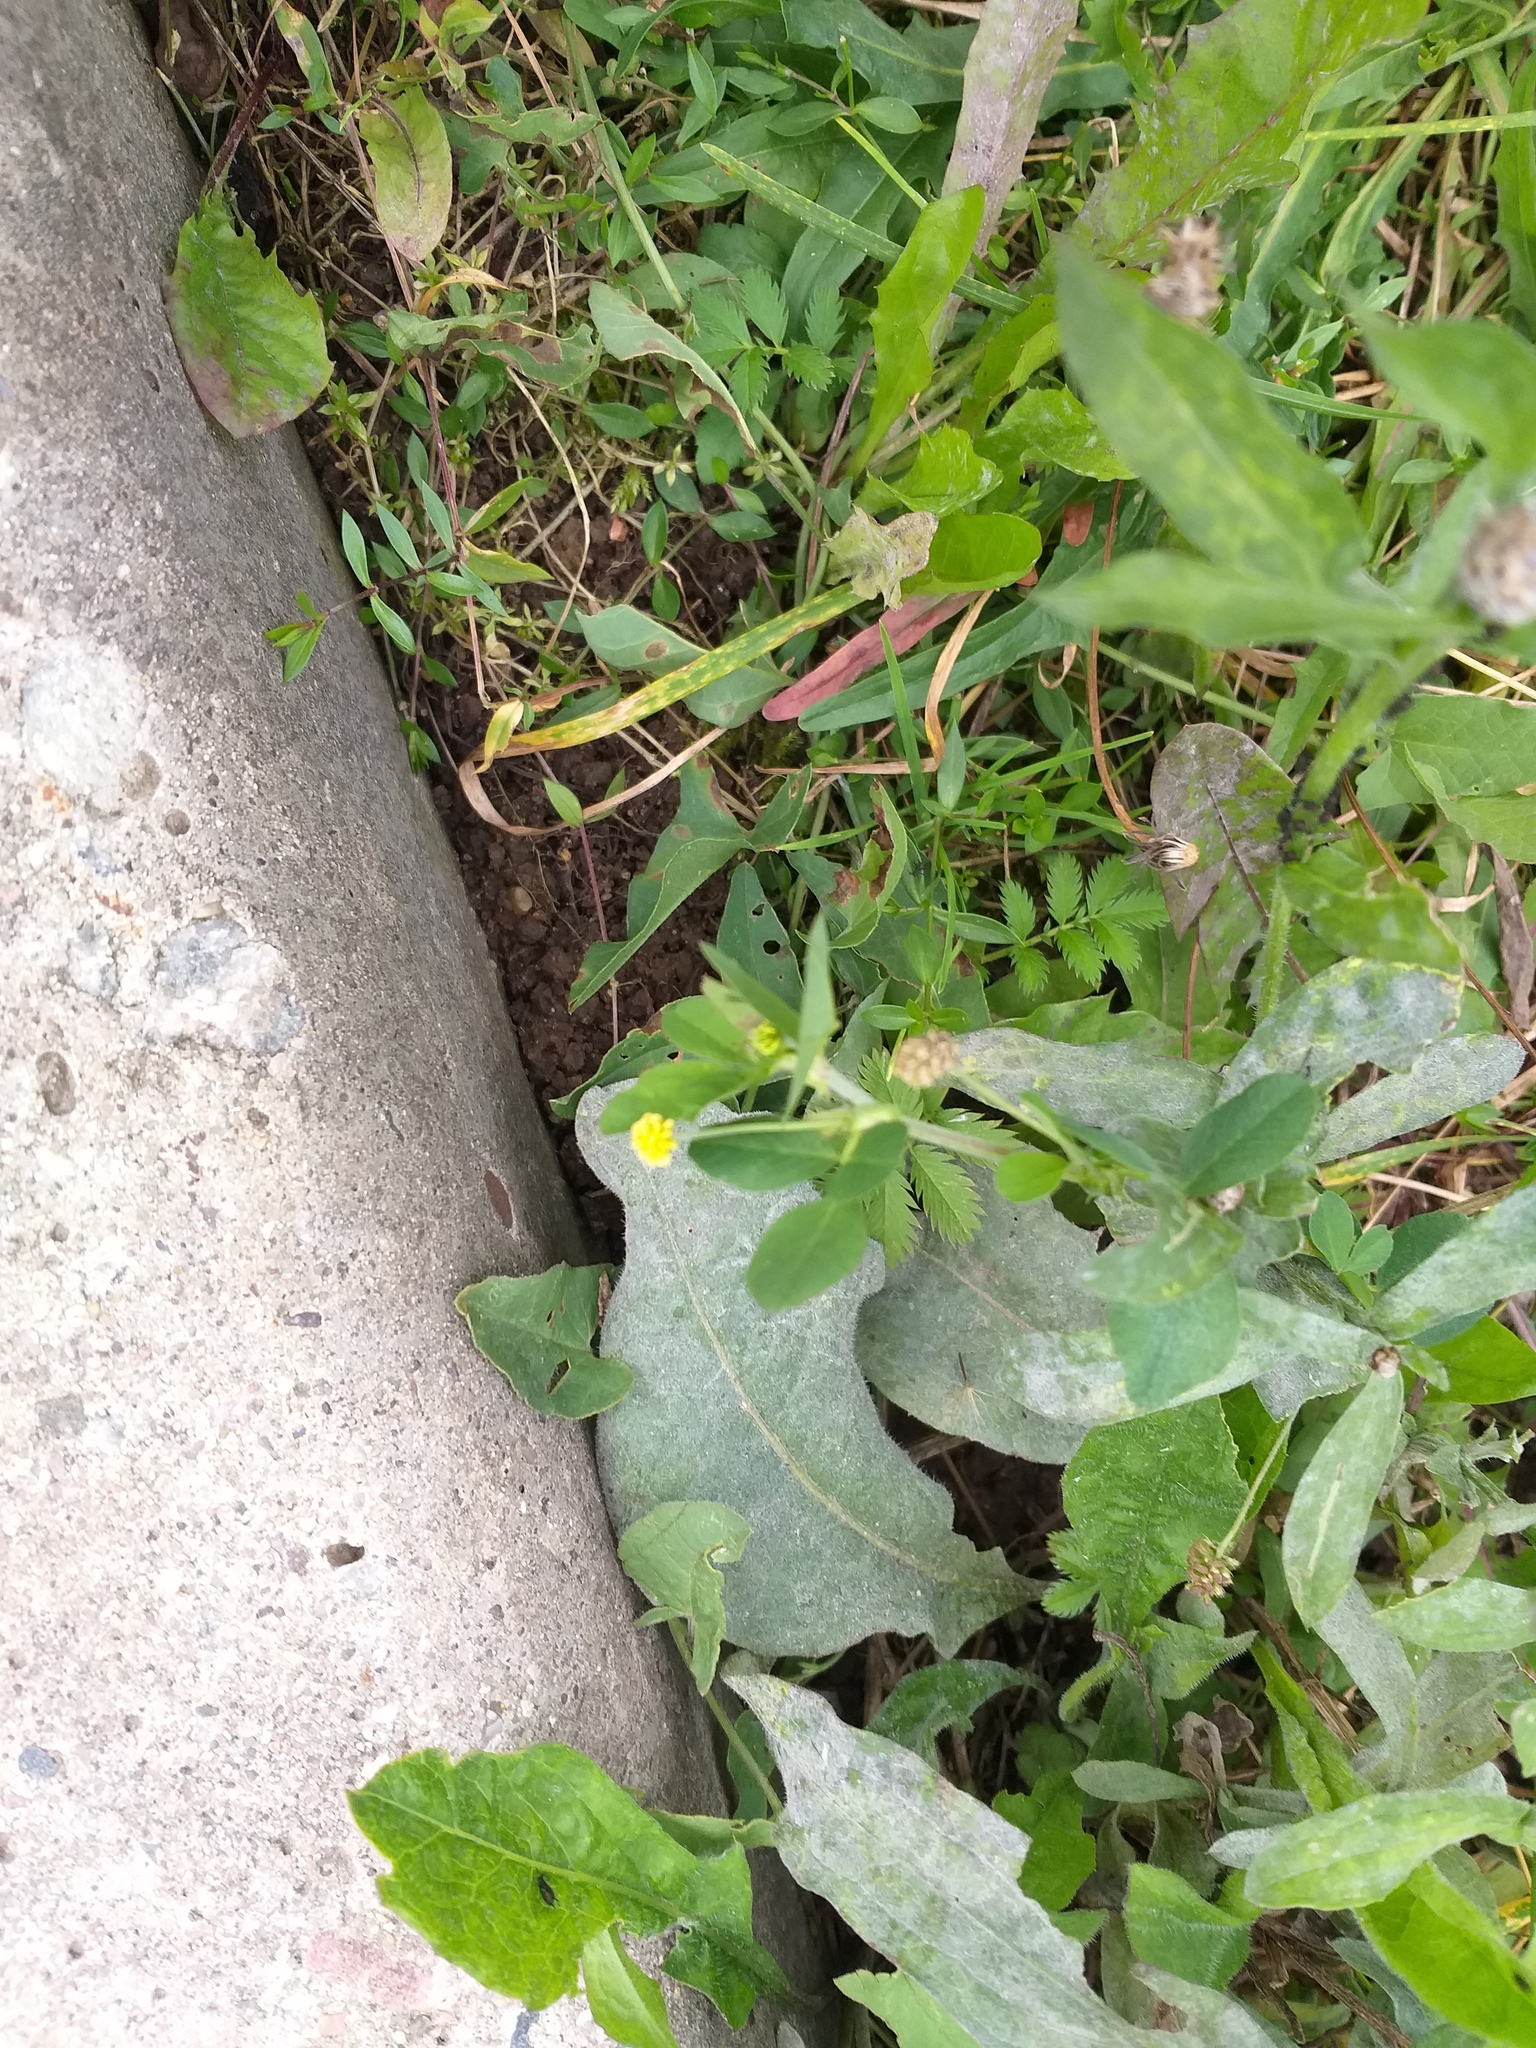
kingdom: Plantae
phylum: Tracheophyta
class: Magnoliopsida
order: Fabales
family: Fabaceae
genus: Medicago
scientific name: Medicago lupulina
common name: Black medick
